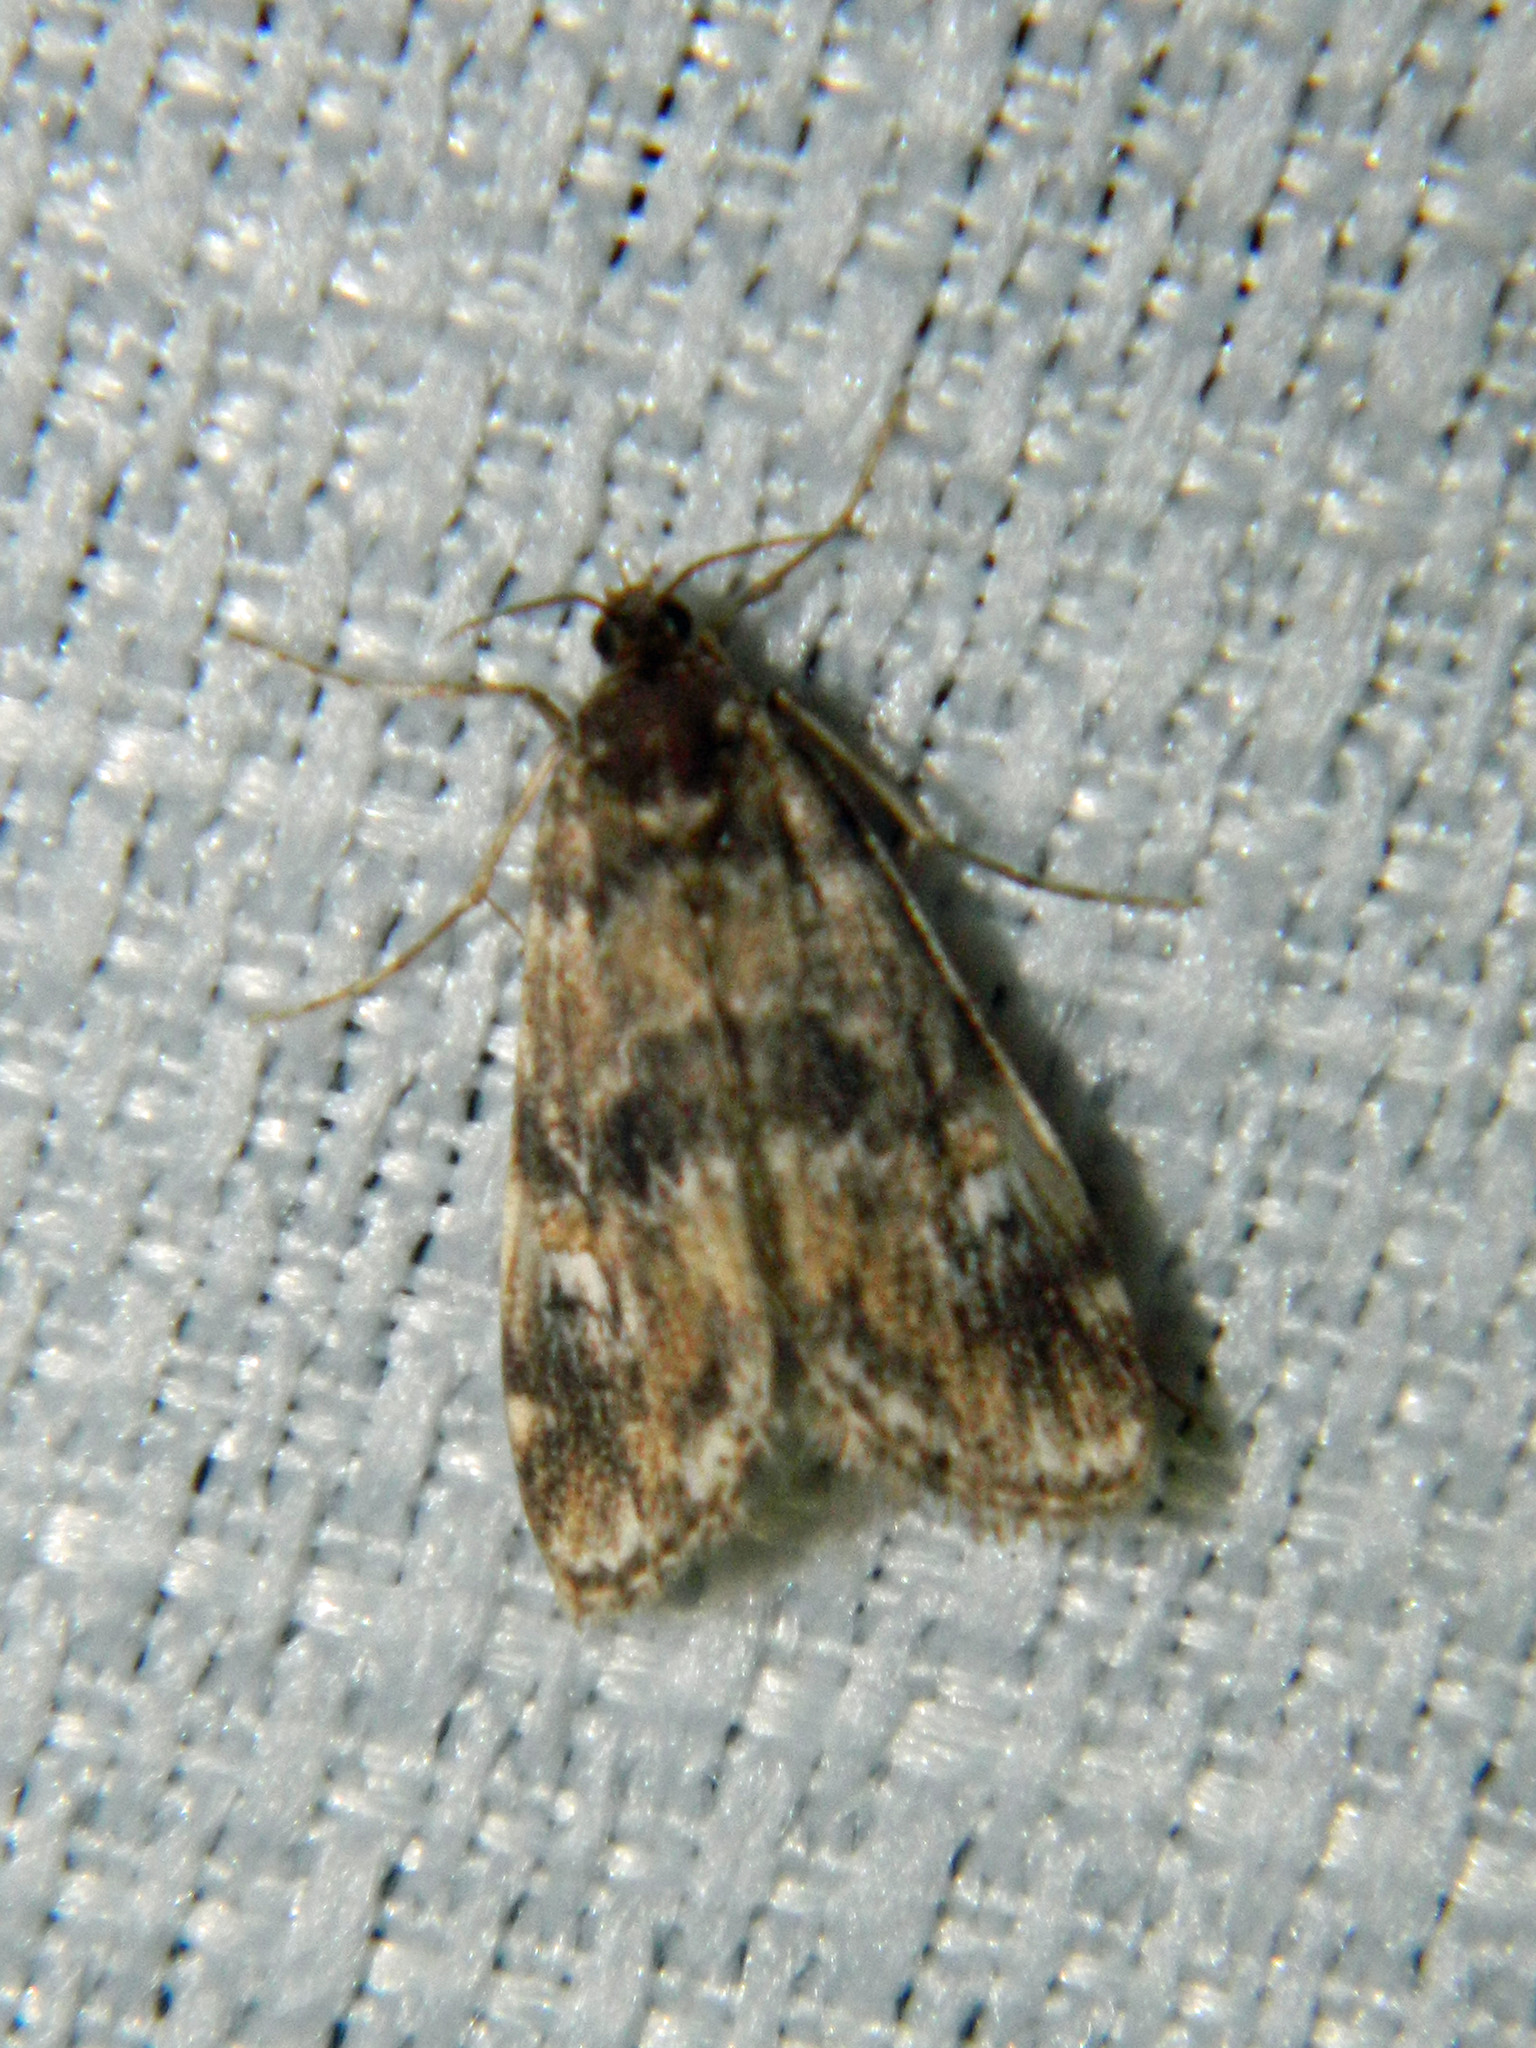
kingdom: Animalia
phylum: Arthropoda
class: Insecta
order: Lepidoptera
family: Crambidae
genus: Elophila
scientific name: Elophila obliteralis
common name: Waterlily leafcutter moth
